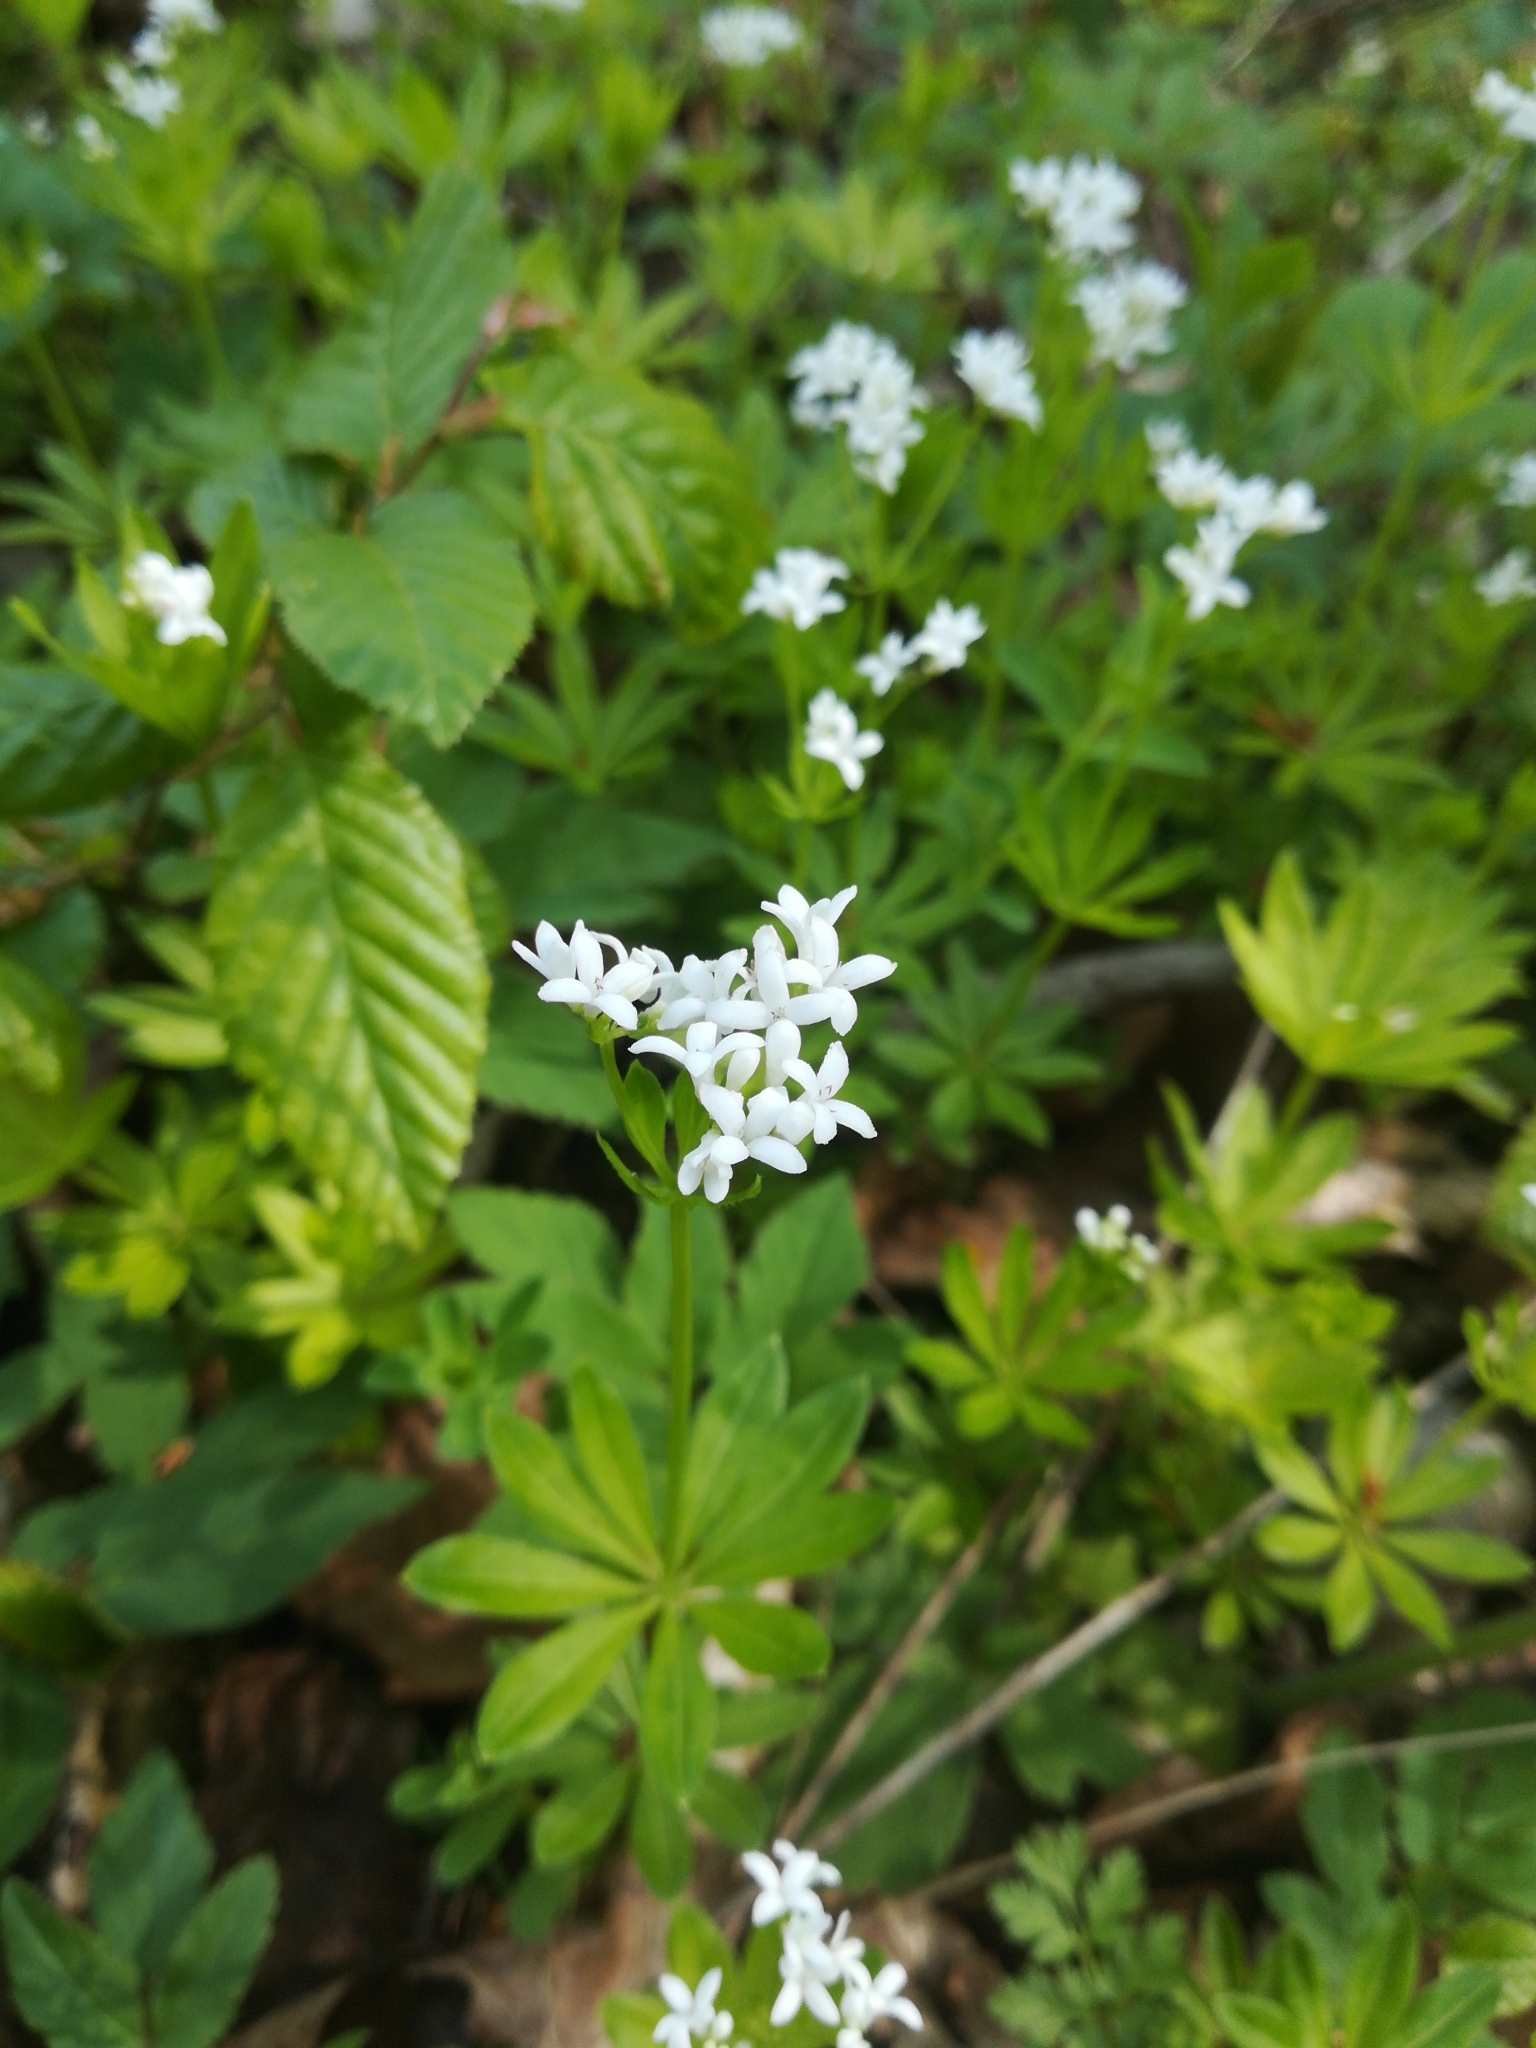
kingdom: Plantae
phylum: Tracheophyta
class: Magnoliopsida
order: Gentianales
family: Rubiaceae
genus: Galium
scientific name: Galium odoratum
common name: Sweet woodruff
